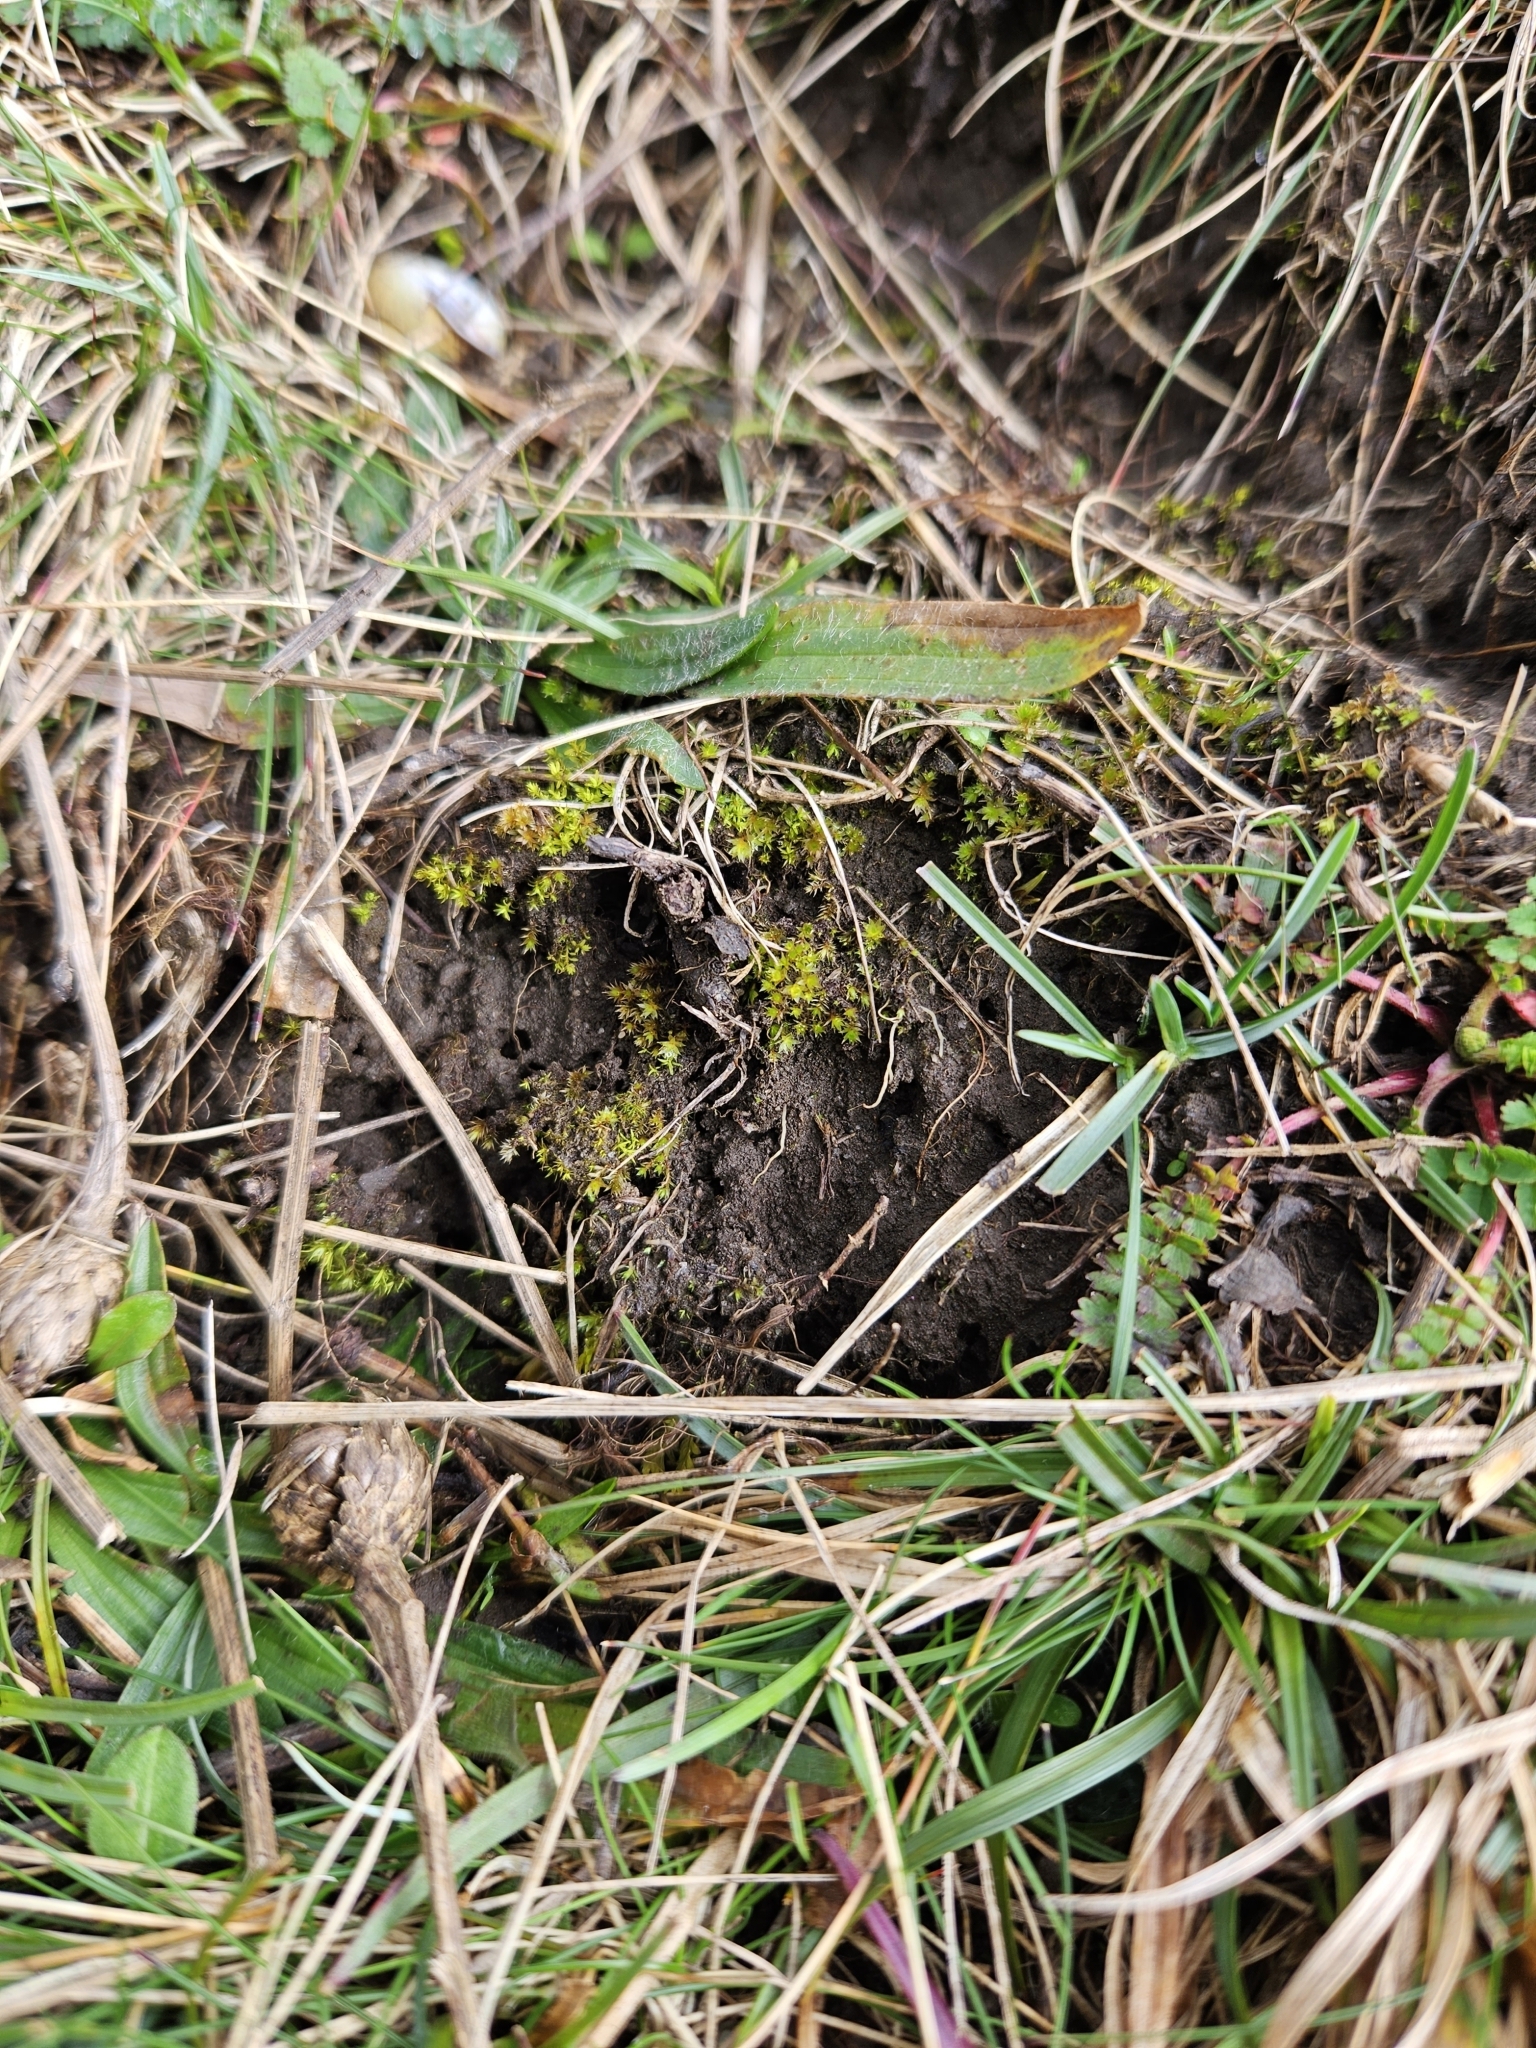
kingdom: Plantae
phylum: Bryophyta
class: Bryopsida
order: Bryales
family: Bryaceae
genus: Rosulabryum
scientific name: Rosulabryum rubens
